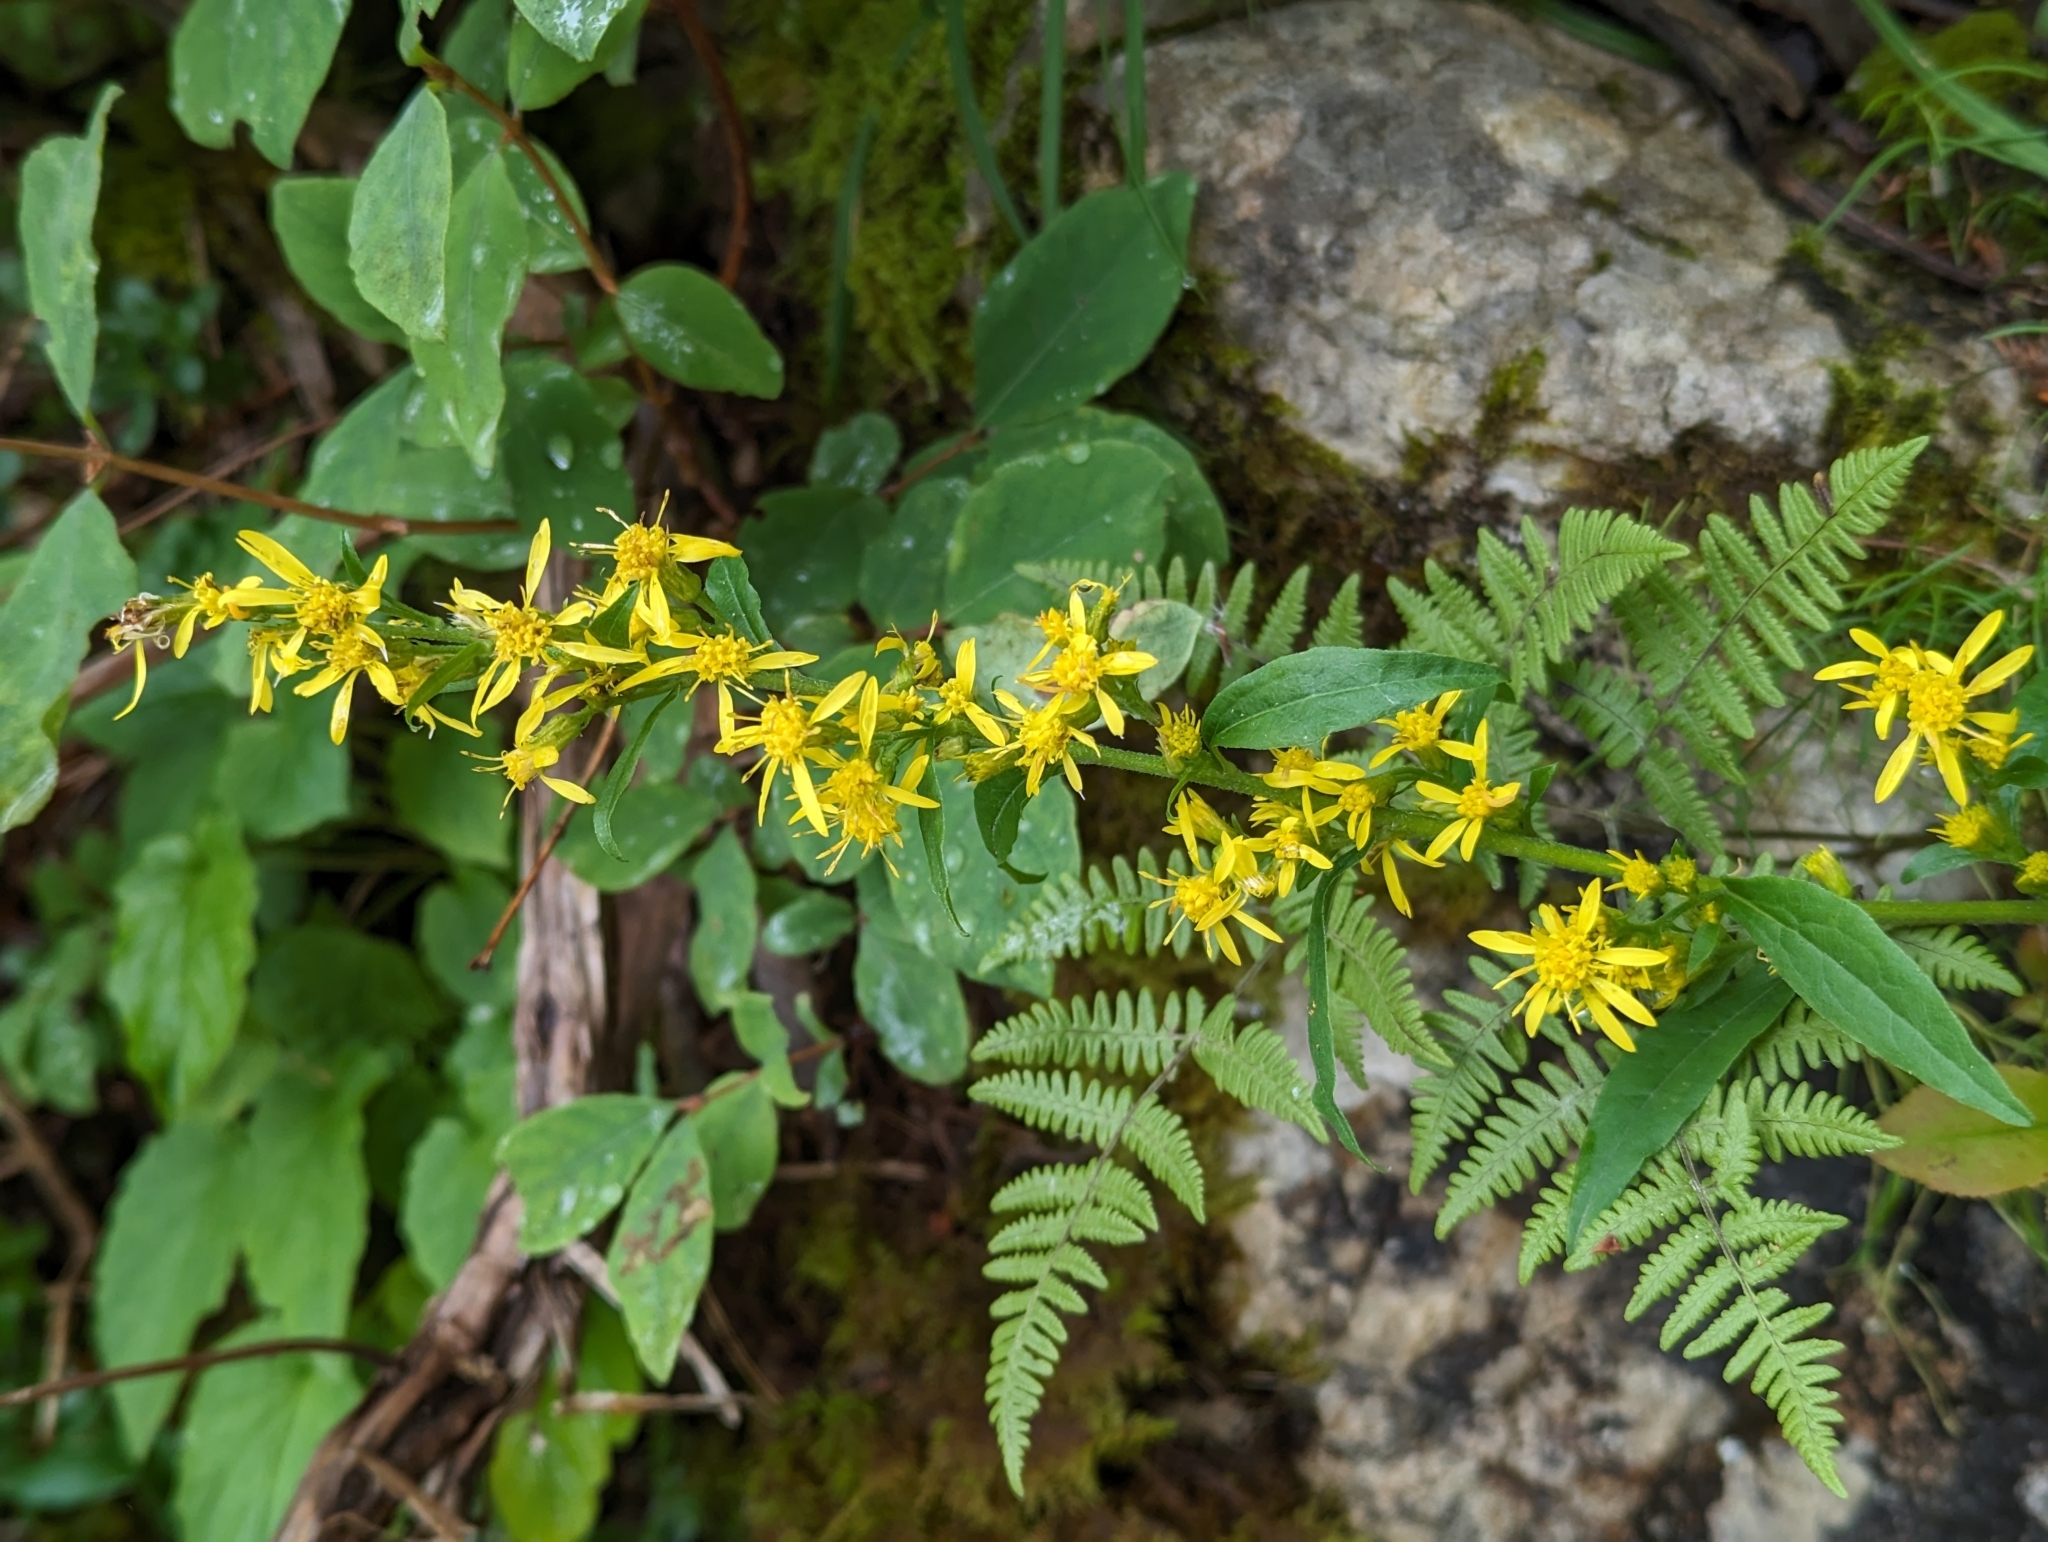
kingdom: Plantae
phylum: Tracheophyta
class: Magnoliopsida
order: Asterales
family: Asteraceae
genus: Solidago
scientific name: Solidago virgaurea
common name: Goldenrod
